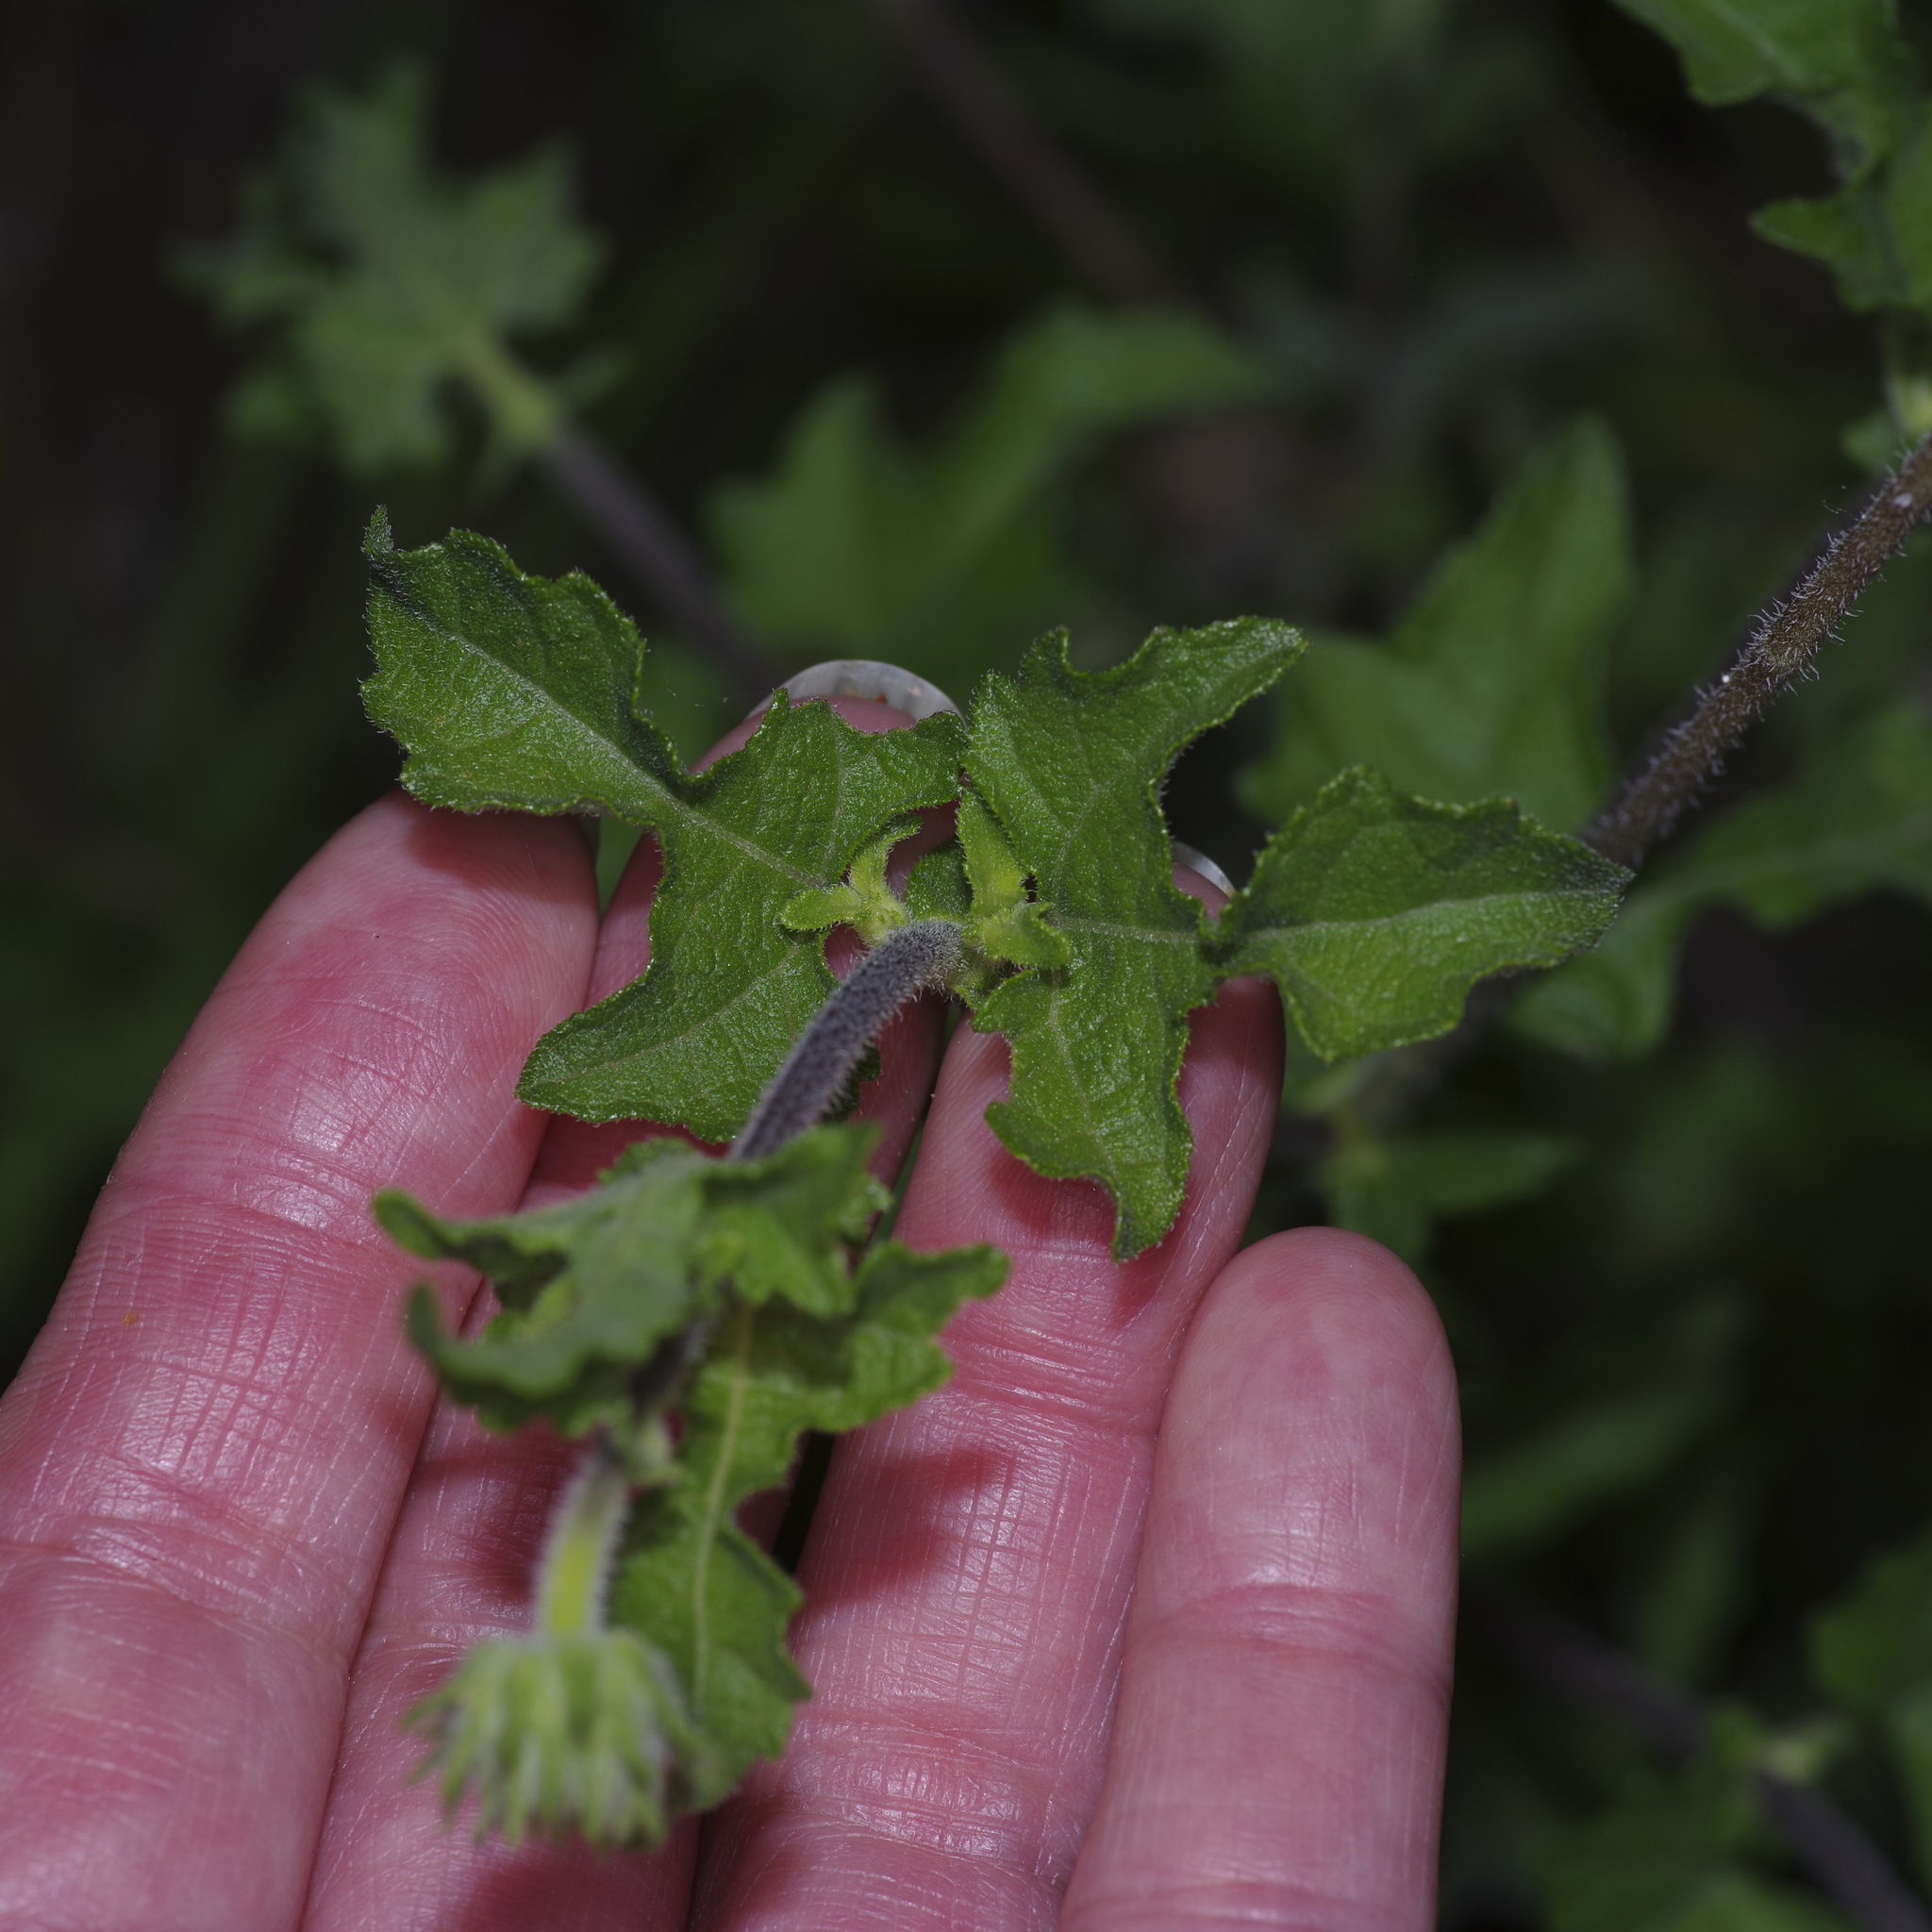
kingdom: Plantae
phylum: Tracheophyta
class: Magnoliopsida
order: Asterales
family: Asteraceae
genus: Simsia
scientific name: Simsia calva
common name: Awnless bush-sunflower
